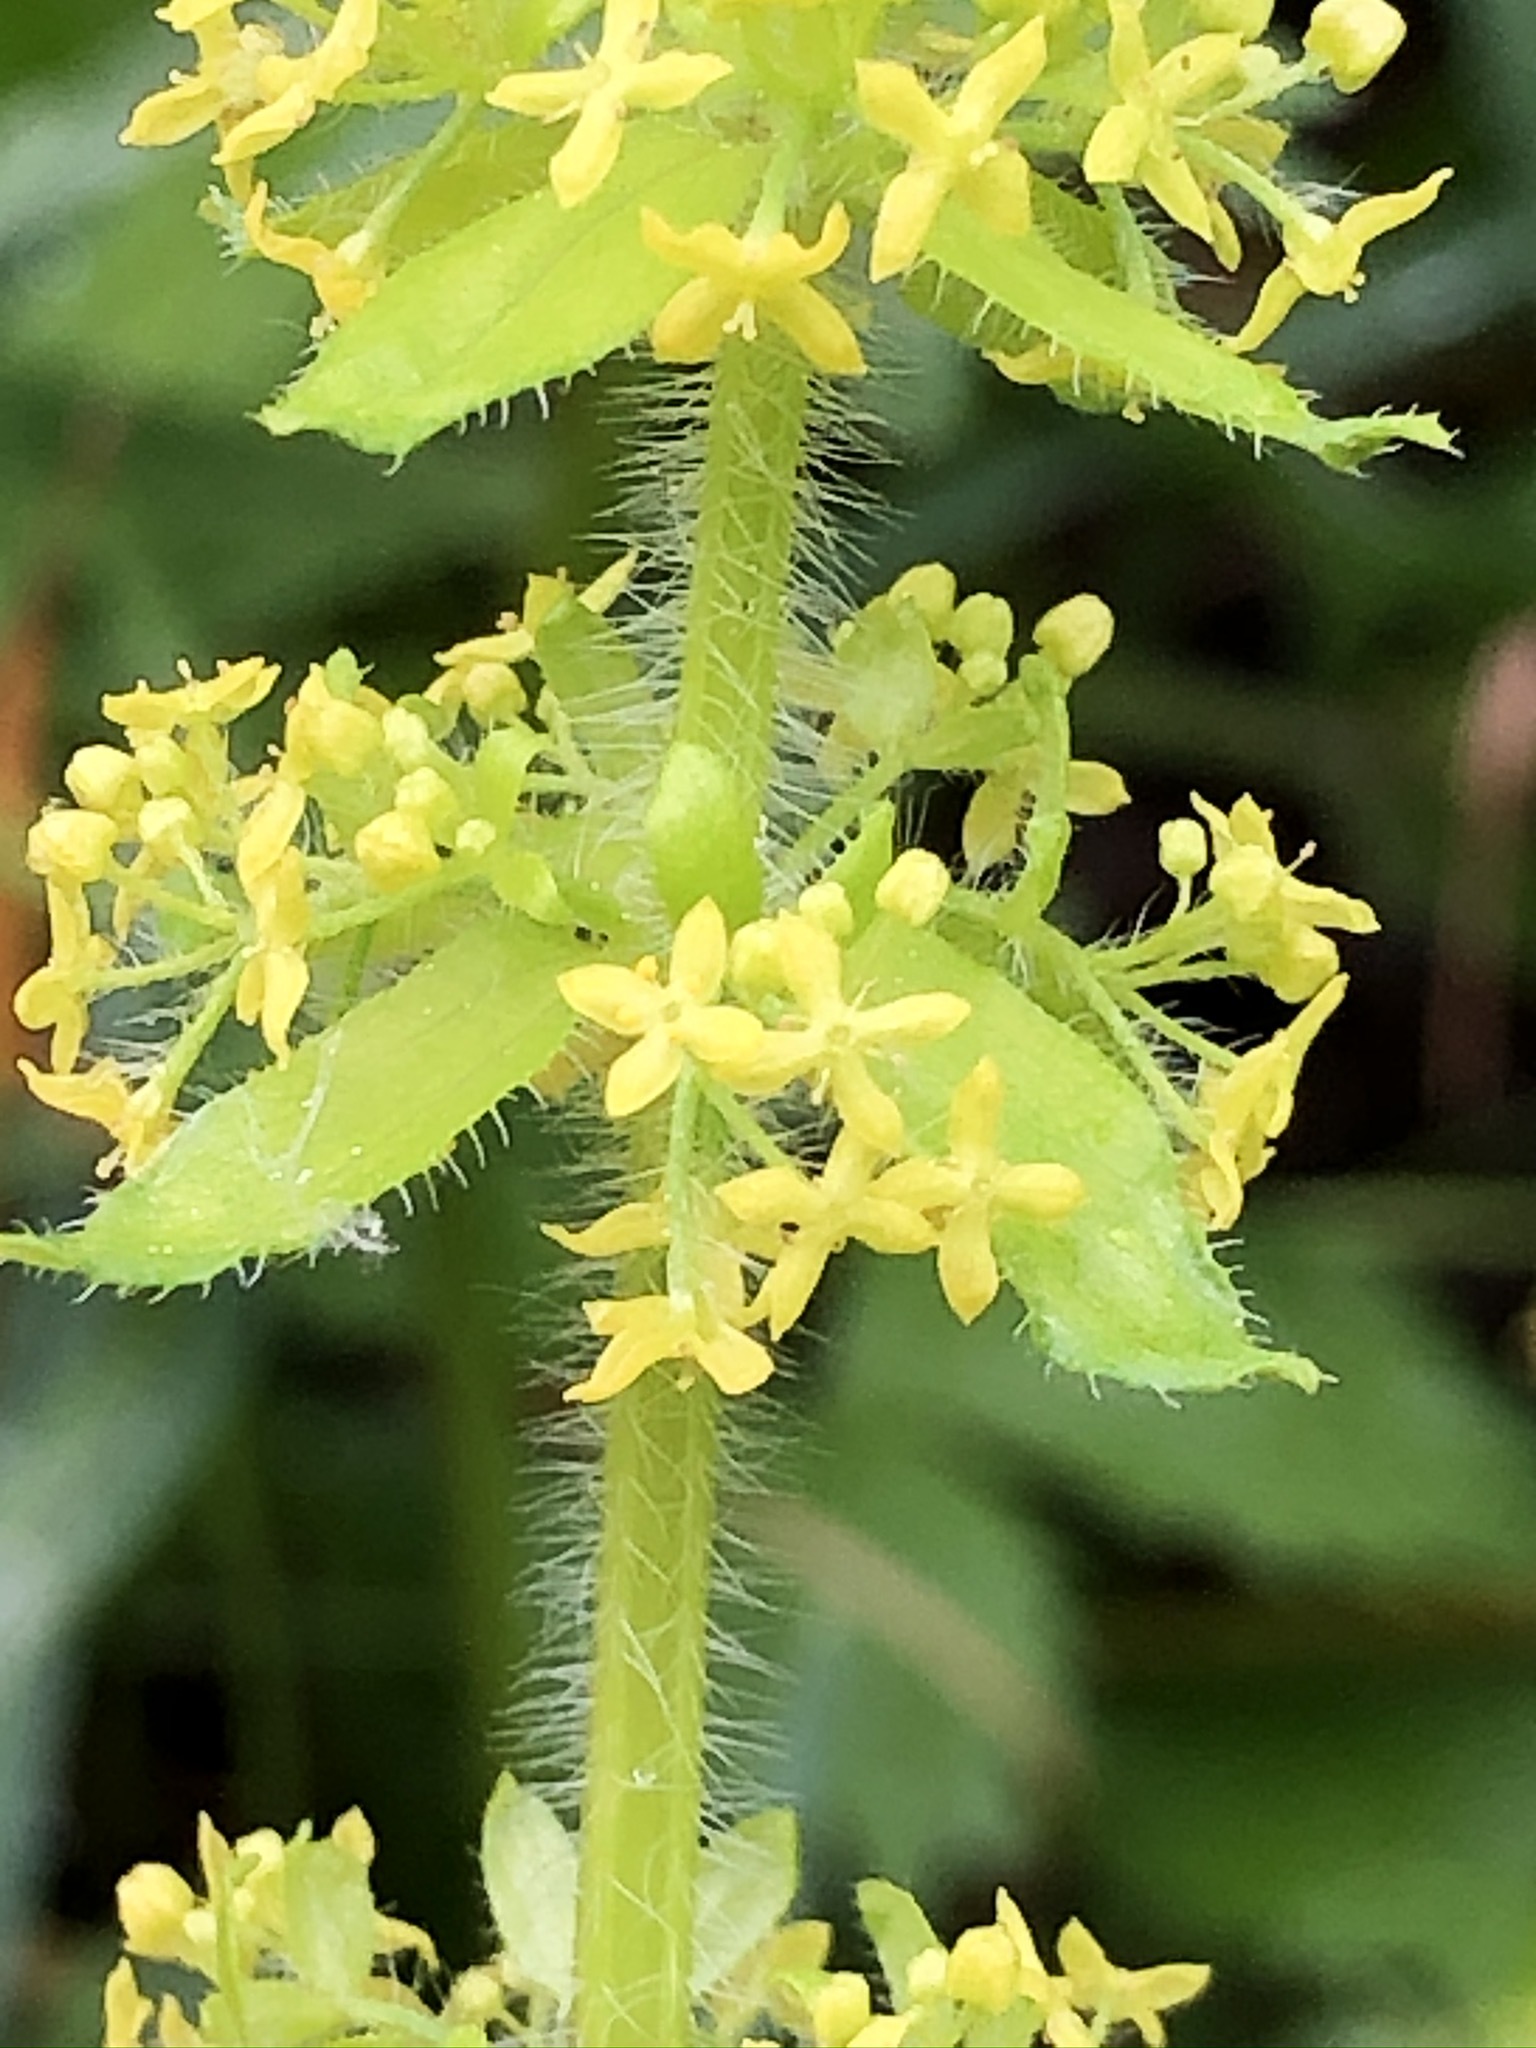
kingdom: Plantae
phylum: Tracheophyta
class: Magnoliopsida
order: Gentianales
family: Rubiaceae
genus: Cruciata
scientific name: Cruciata laevipes
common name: Crosswort
